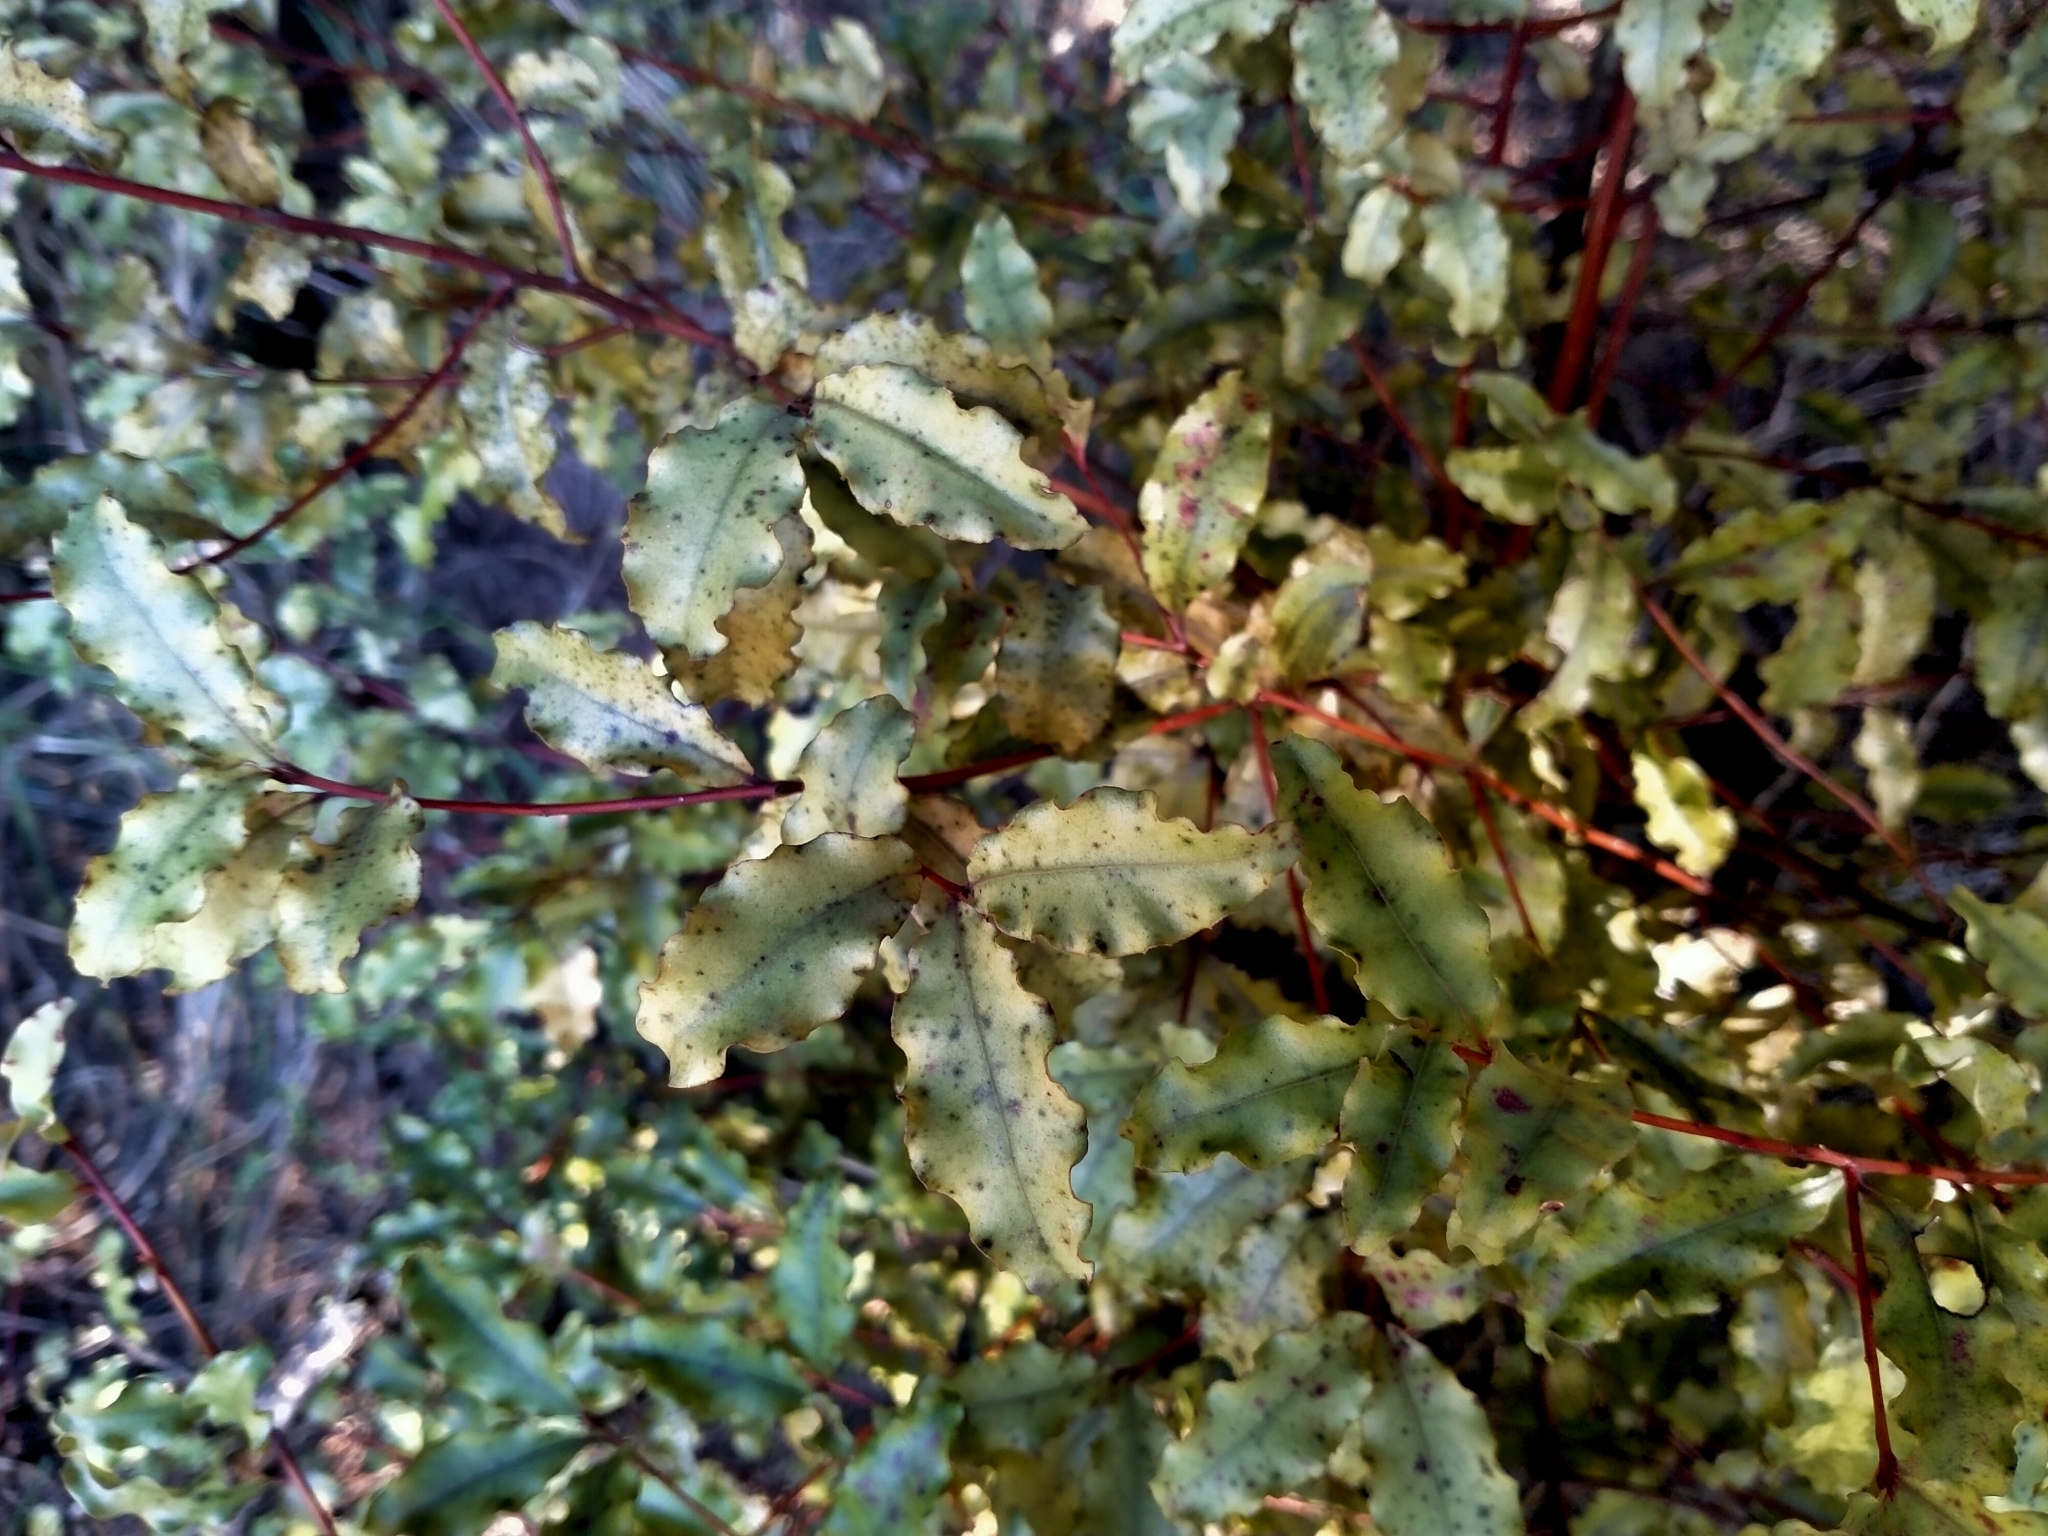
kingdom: Plantae
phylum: Tracheophyta
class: Magnoliopsida
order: Ericales
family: Primulaceae
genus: Myrsine
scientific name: Myrsine australis
